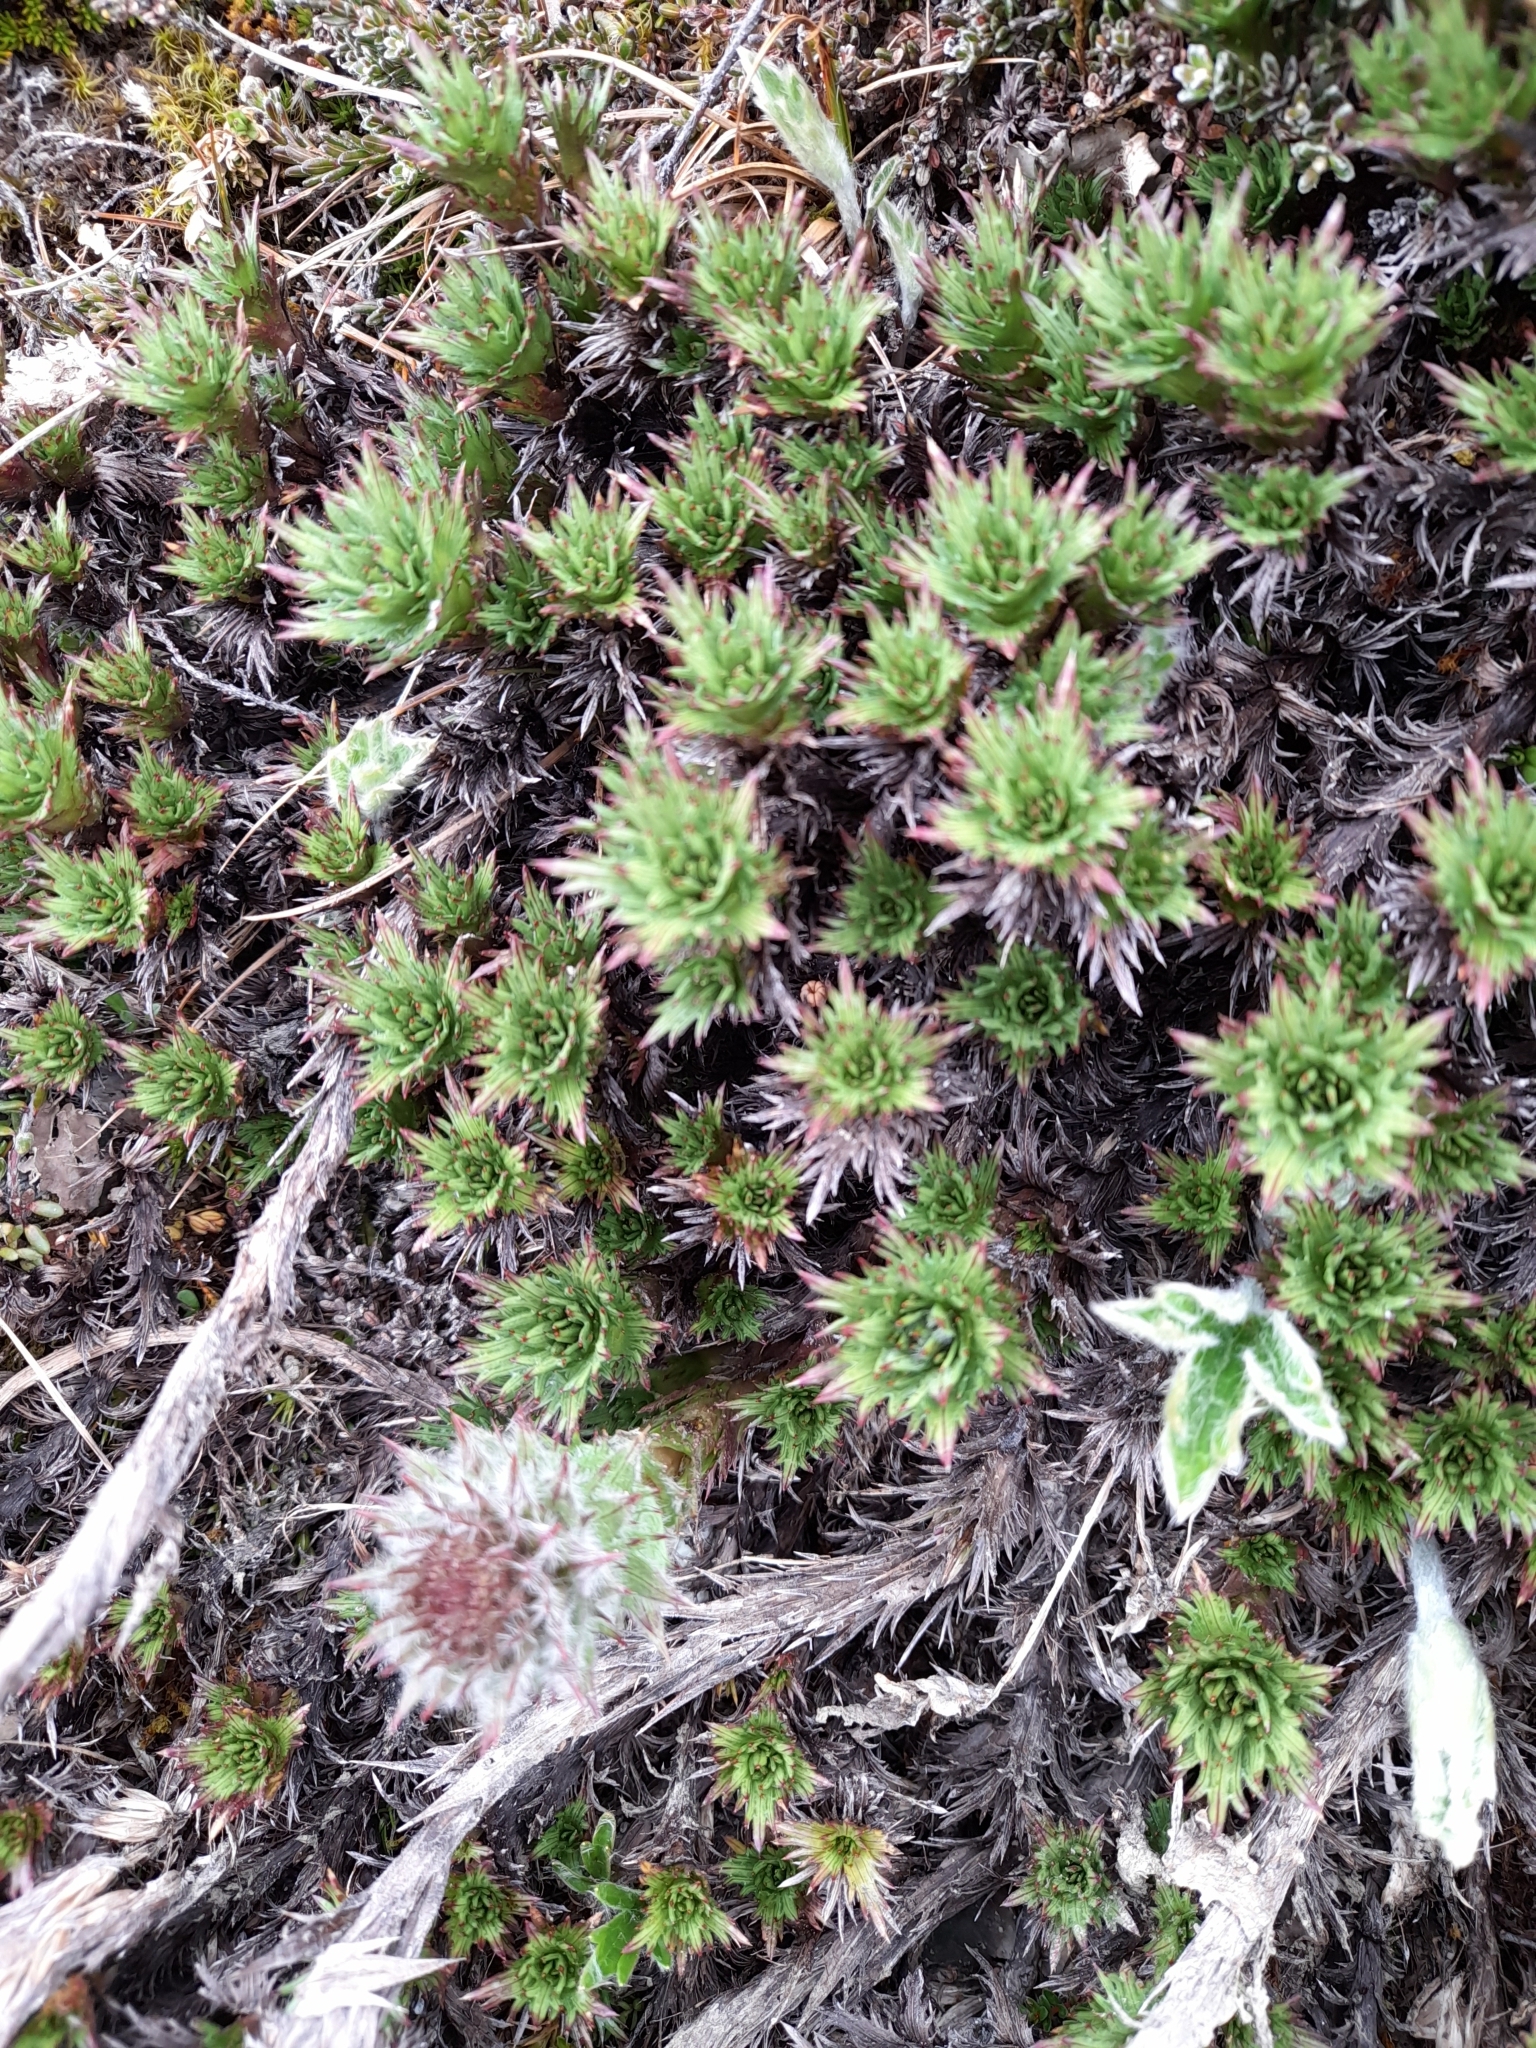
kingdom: Plantae
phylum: Tracheophyta
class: Magnoliopsida
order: Asterales
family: Asteraceae
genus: Nassauvia
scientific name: Nassauvia magellanica
